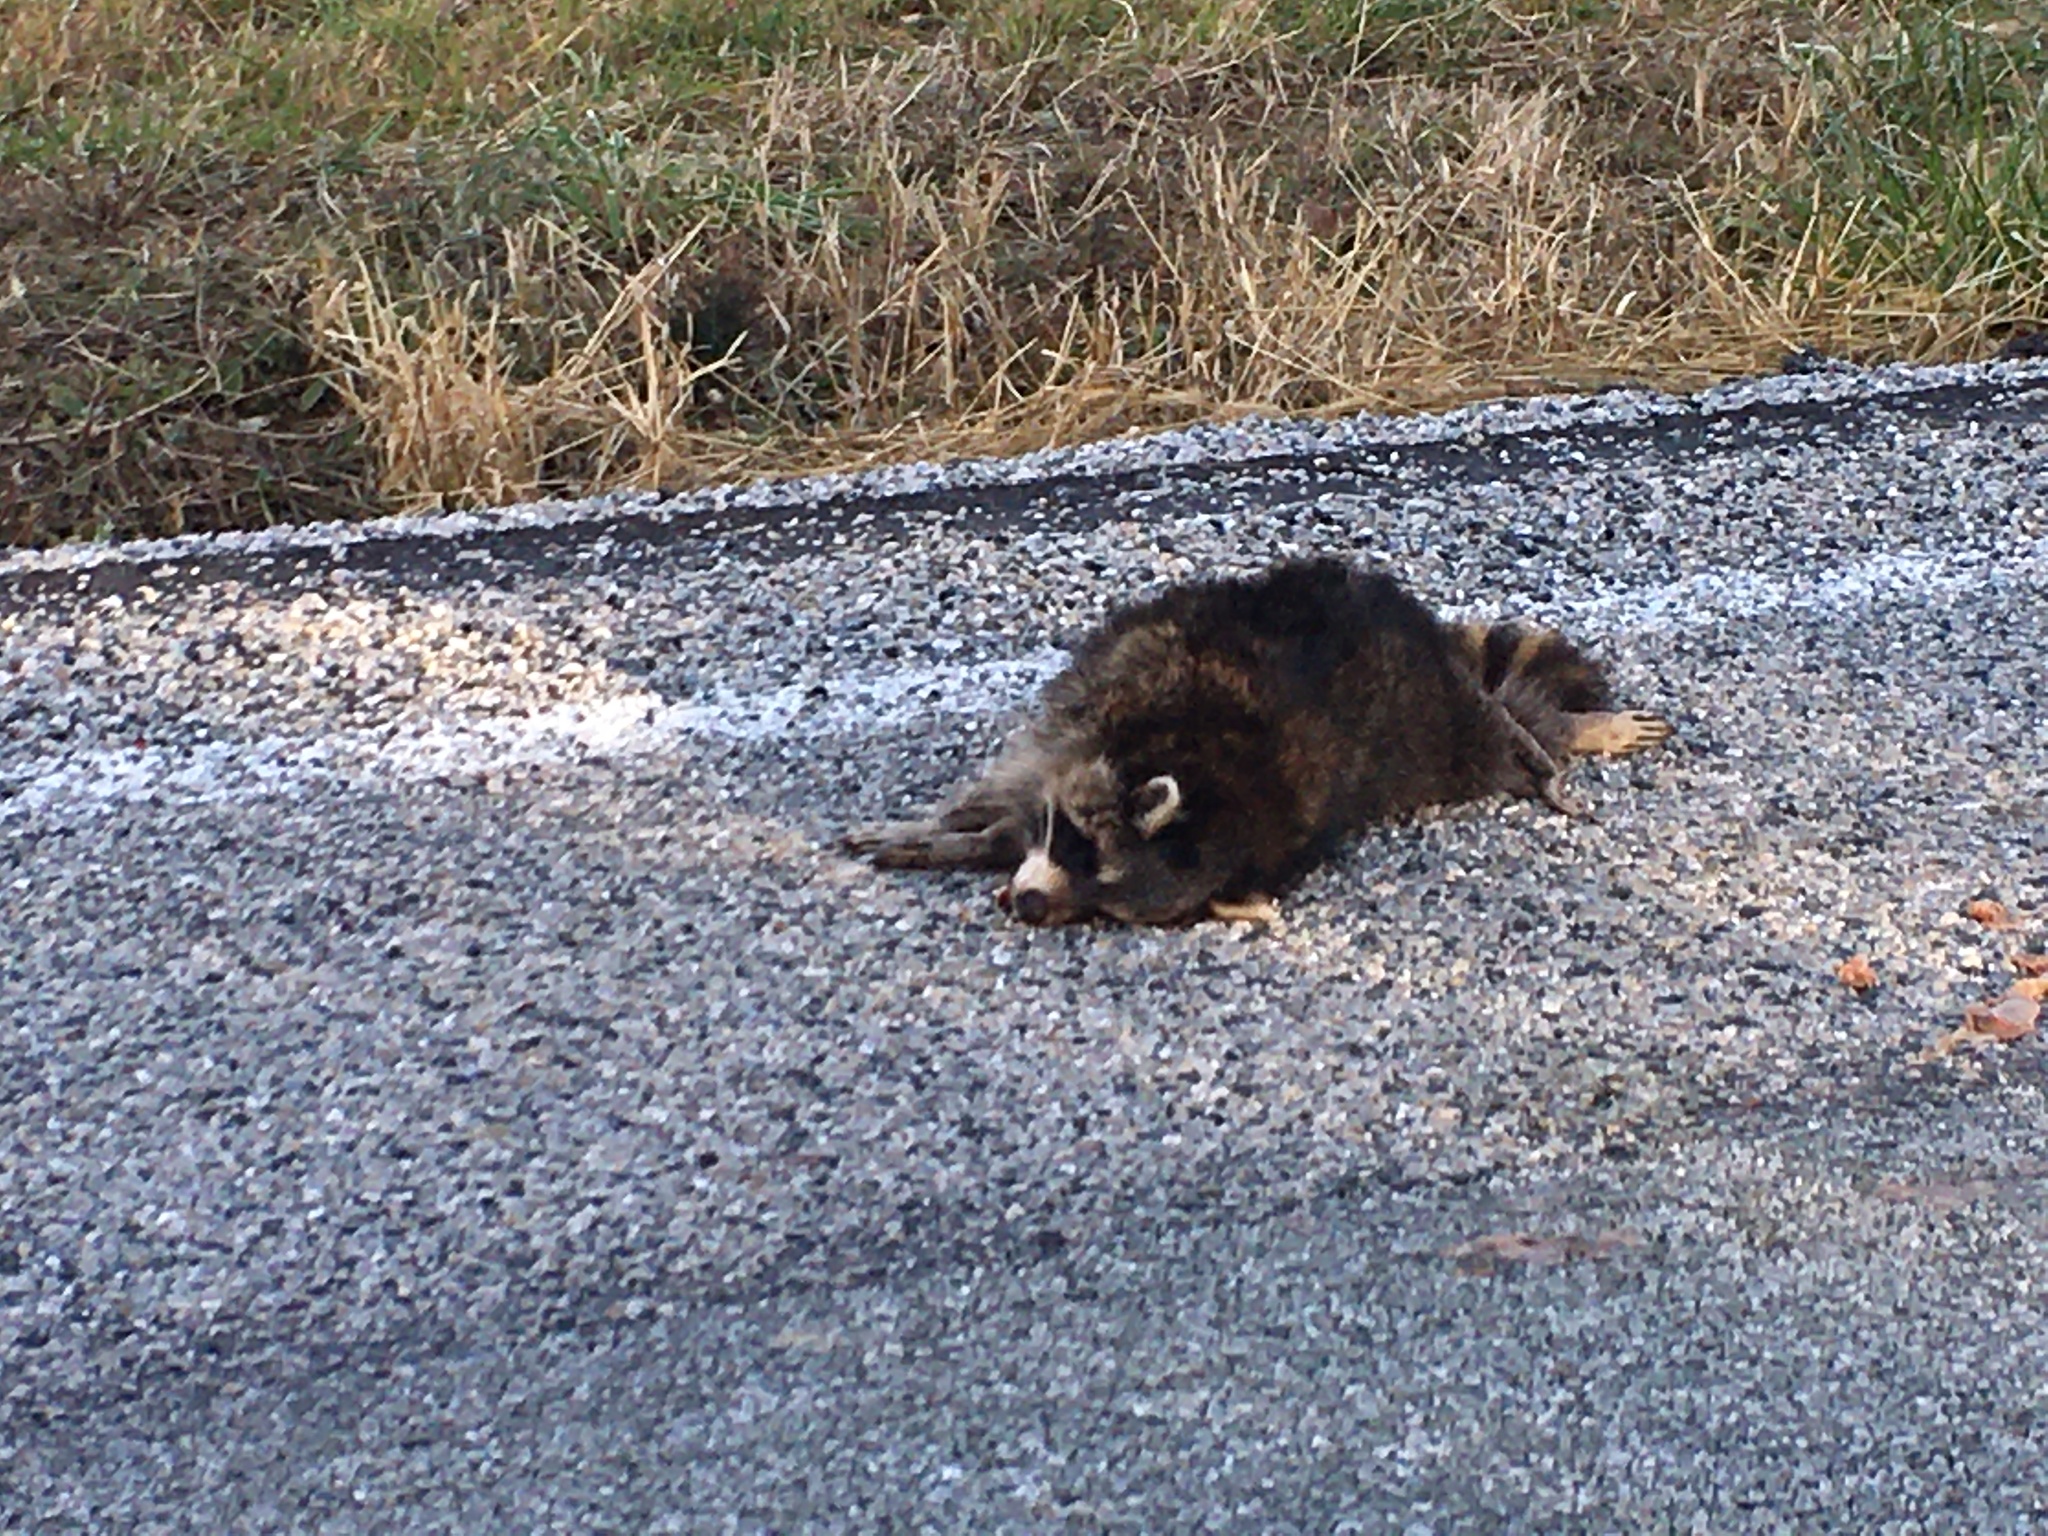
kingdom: Animalia
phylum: Chordata
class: Mammalia
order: Carnivora
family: Procyonidae
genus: Procyon
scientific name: Procyon lotor
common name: Raccoon
